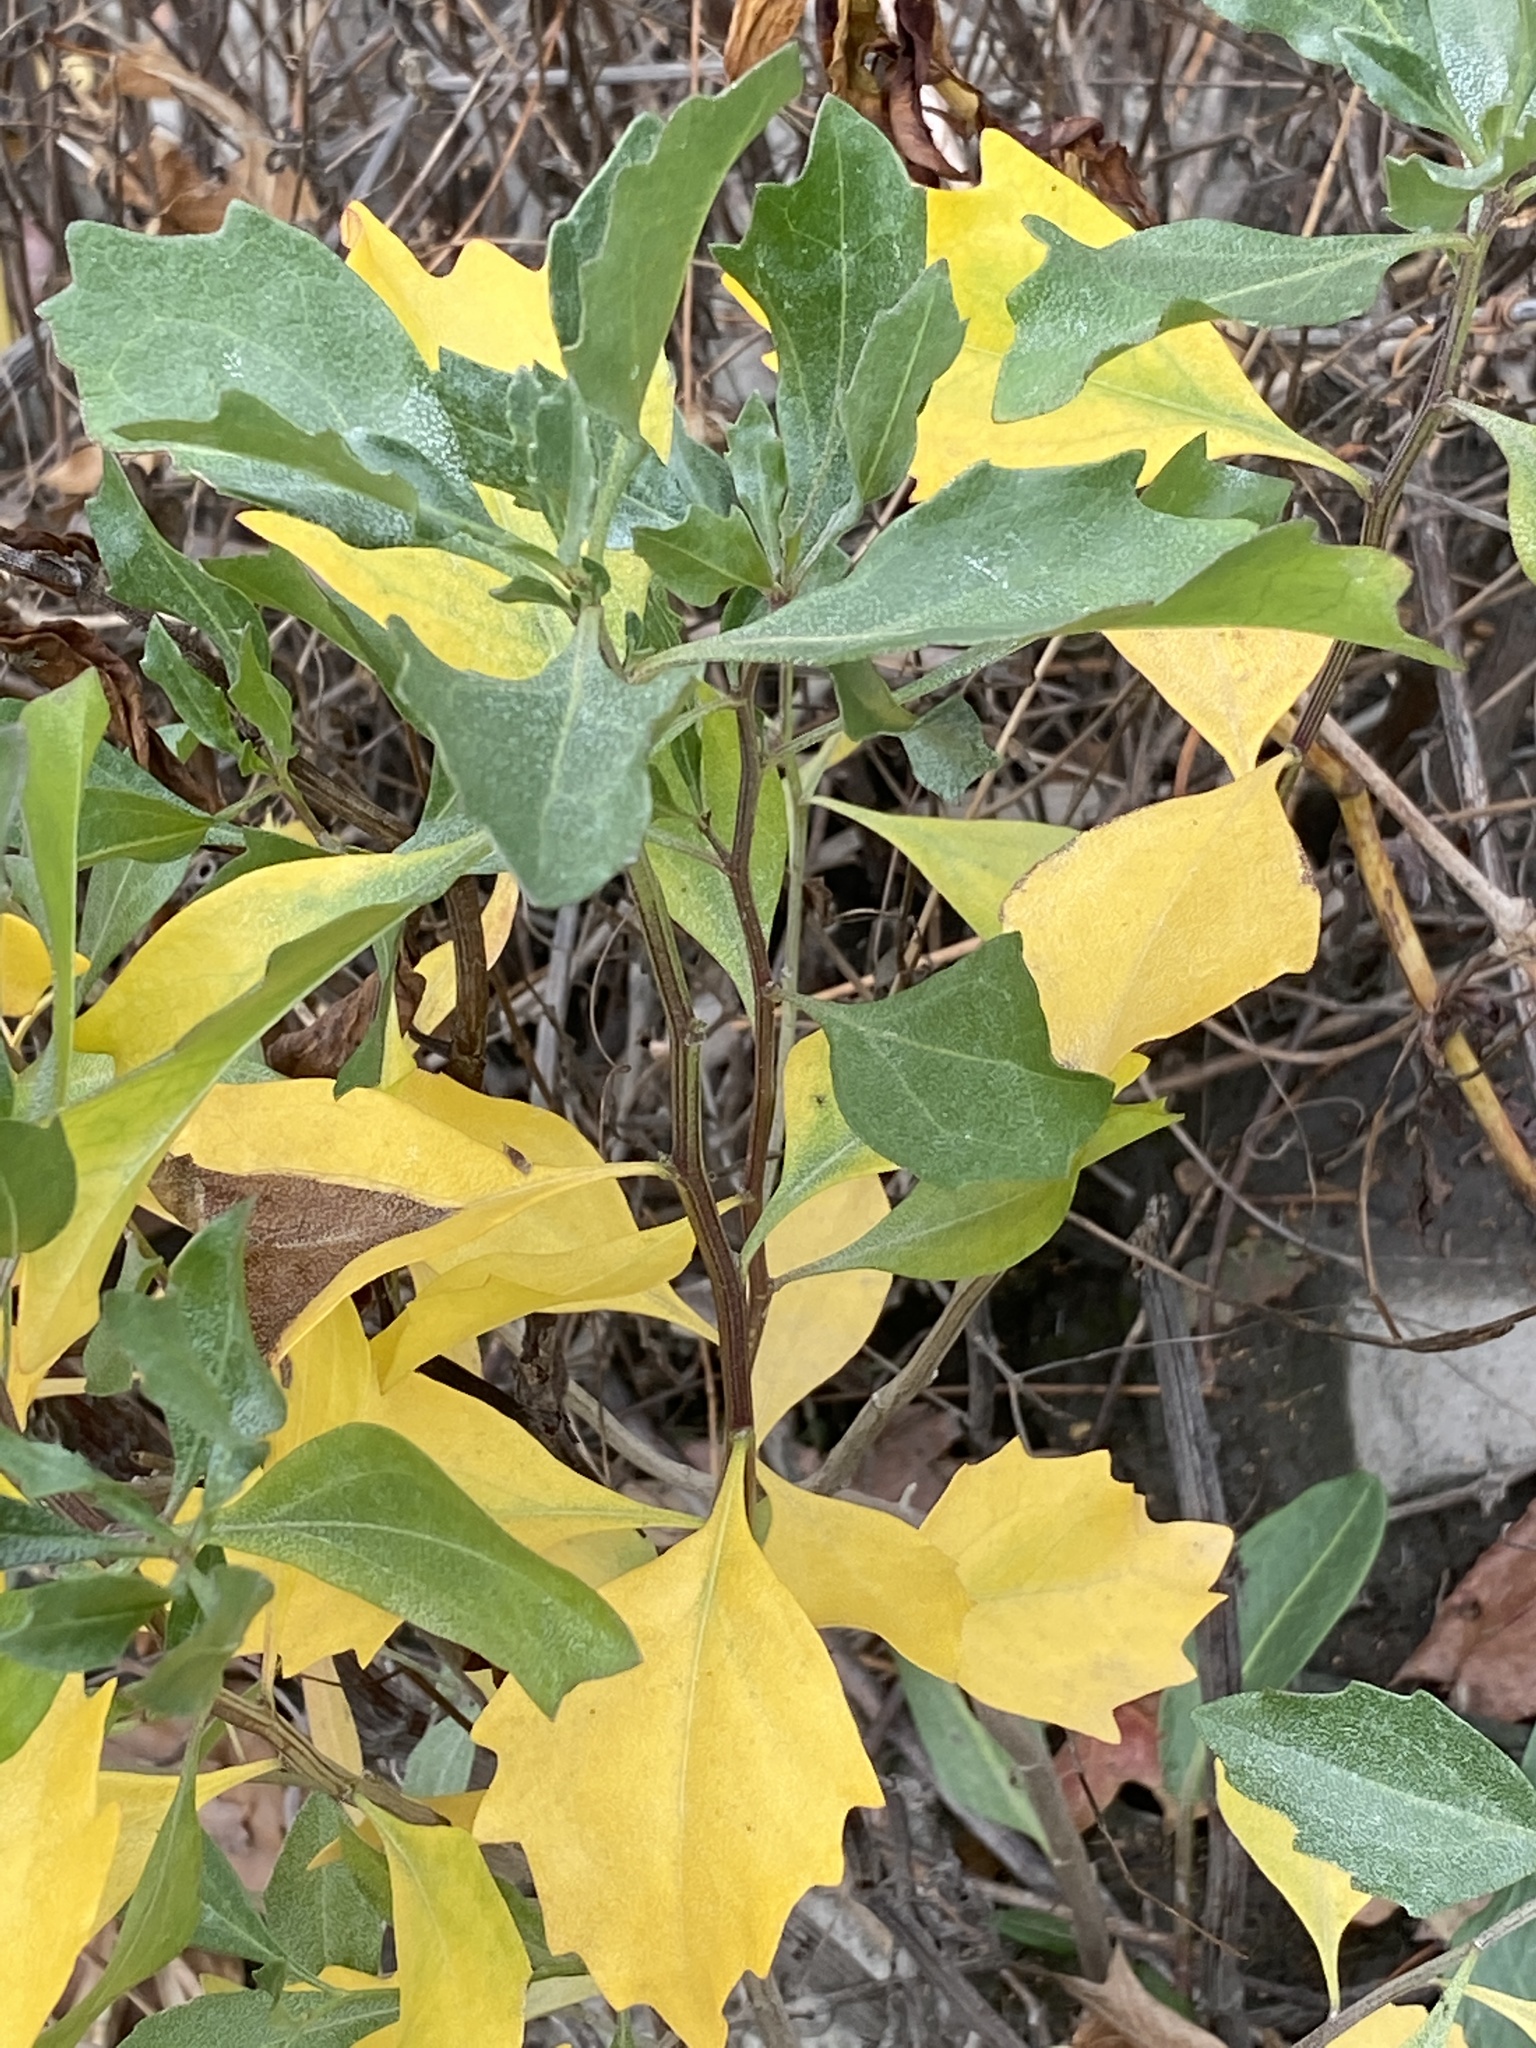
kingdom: Plantae
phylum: Tracheophyta
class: Magnoliopsida
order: Asterales
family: Asteraceae
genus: Baccharis
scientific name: Baccharis halimifolia
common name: Eastern baccharis
